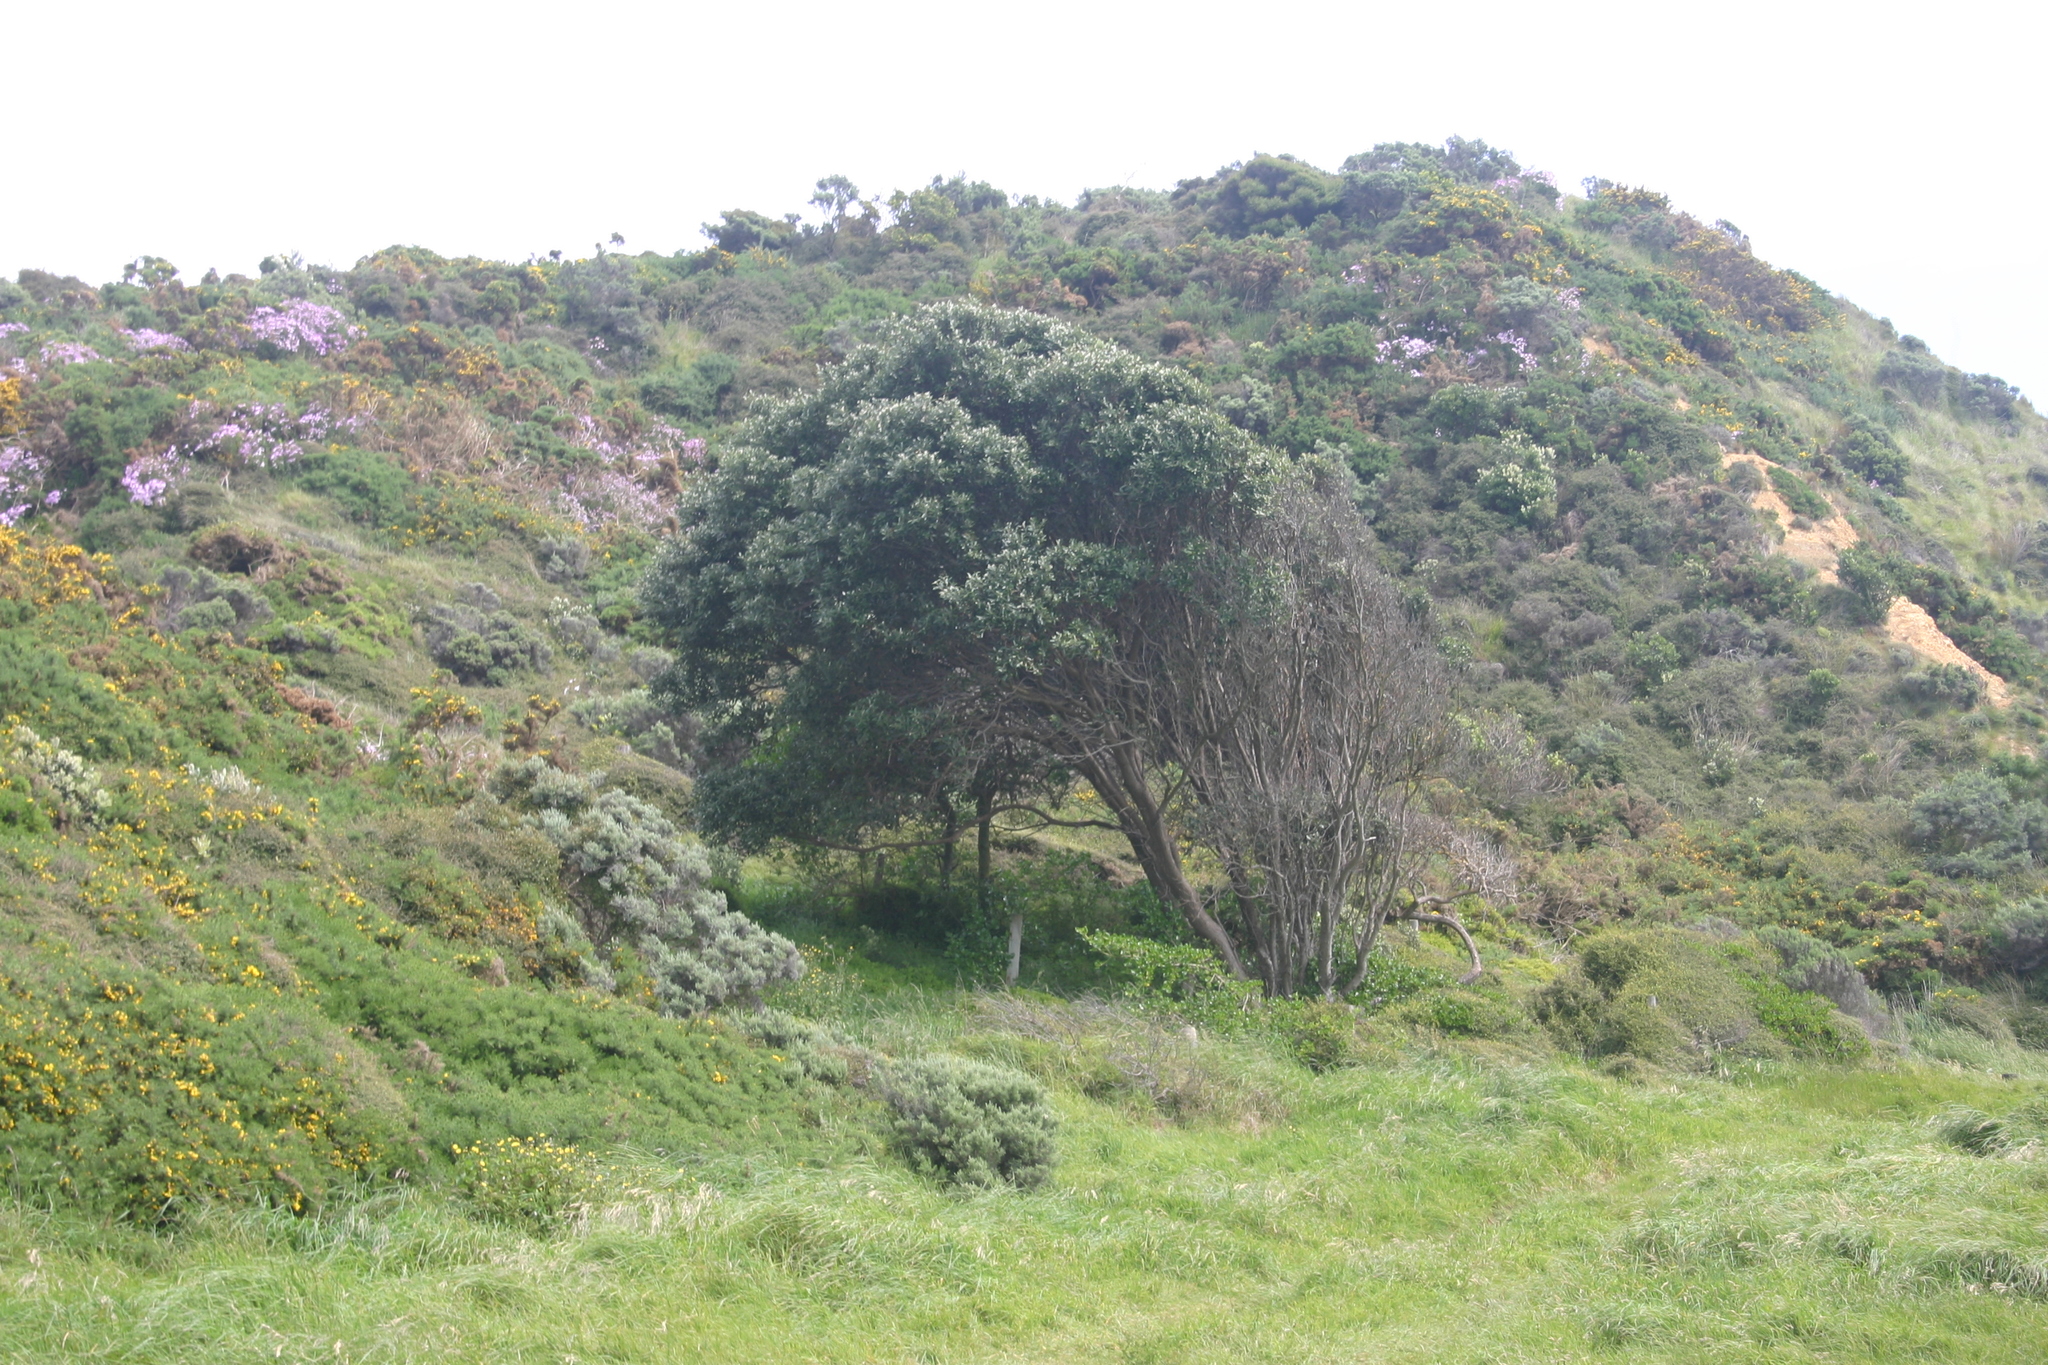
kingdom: Plantae
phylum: Tracheophyta
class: Magnoliopsida
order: Myrtales
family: Myrtaceae
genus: Metrosideros
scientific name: Metrosideros excelsa
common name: New zealand christmastree
